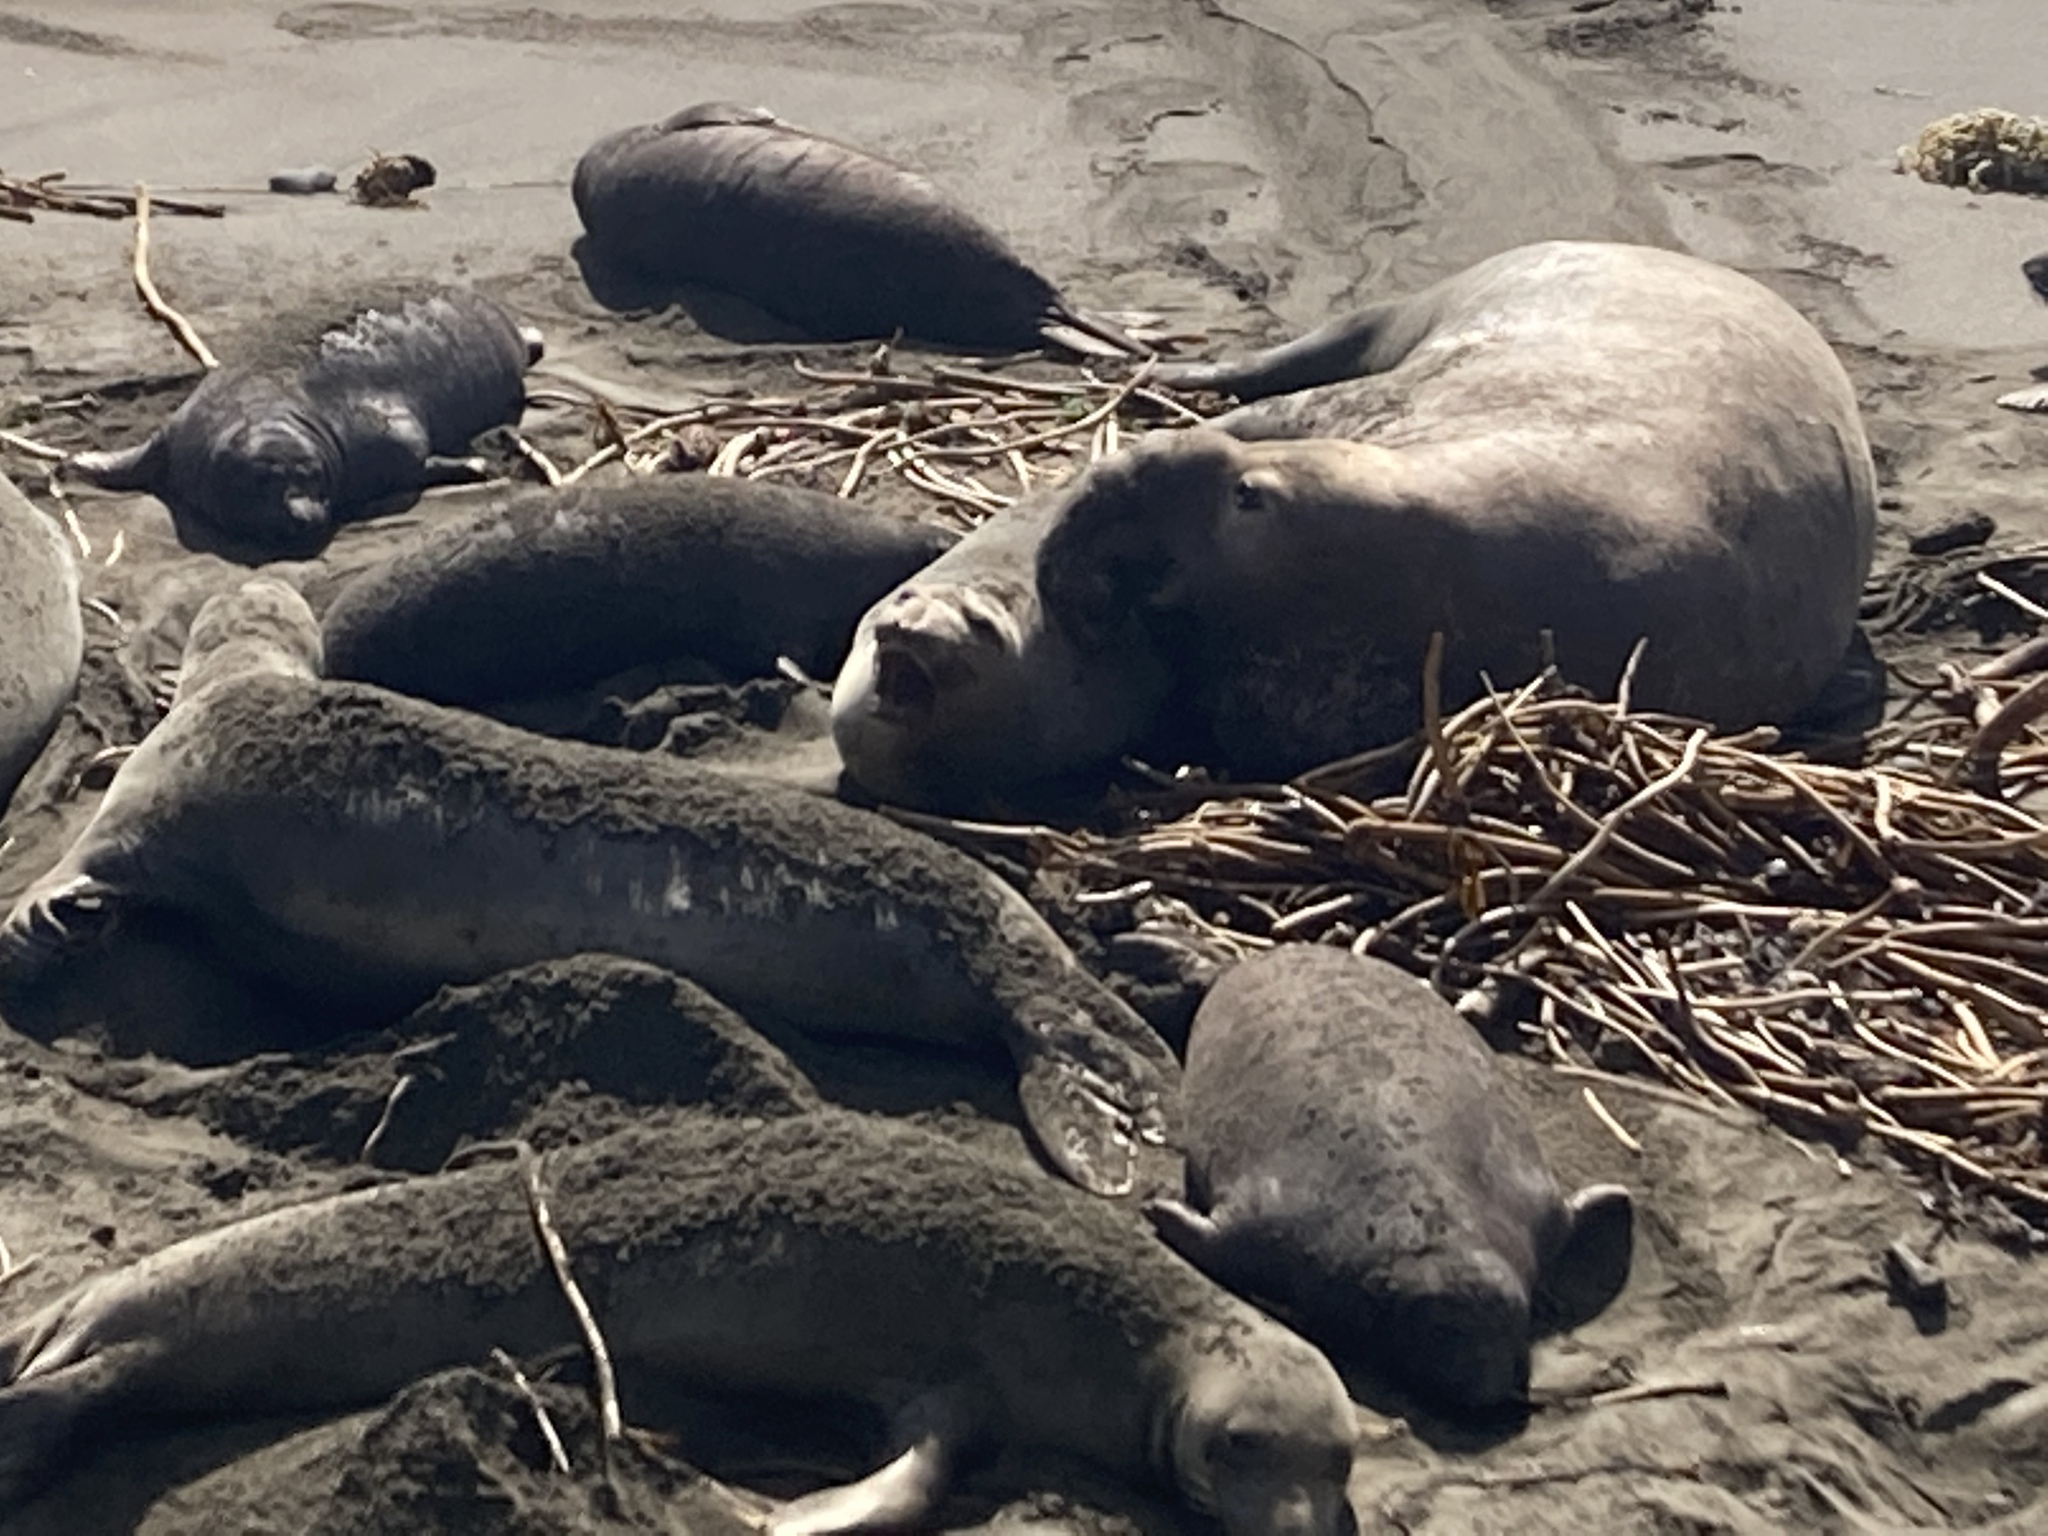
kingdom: Animalia
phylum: Chordata
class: Mammalia
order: Carnivora
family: Phocidae
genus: Mirounga
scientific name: Mirounga angustirostris
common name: Northern elephant seal
